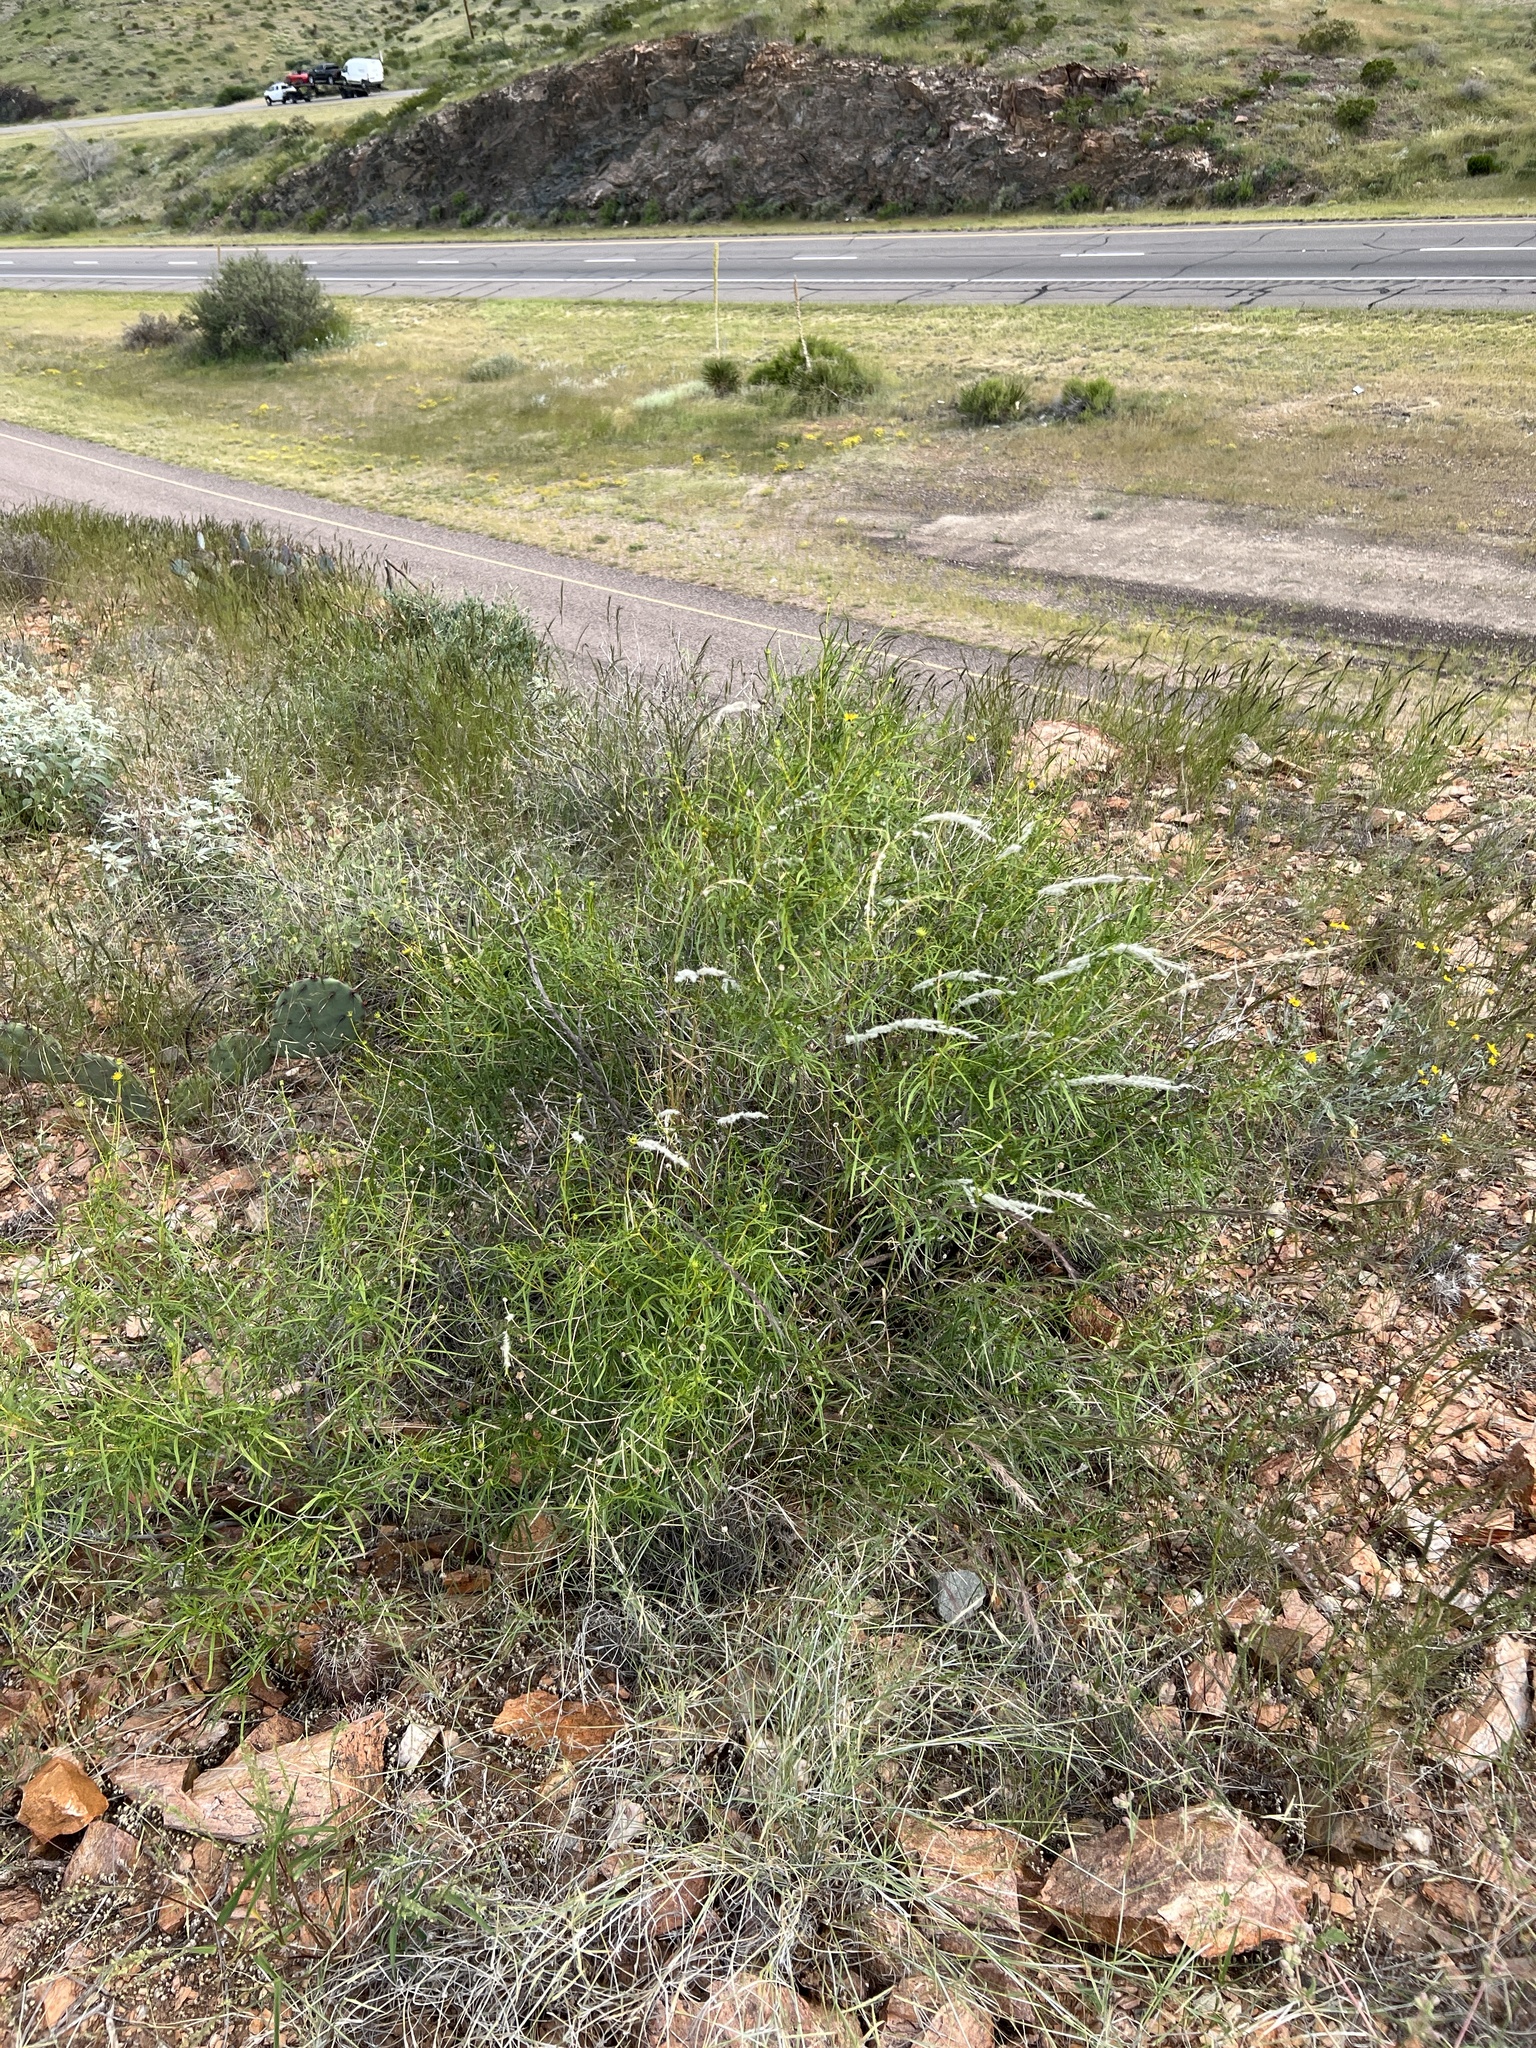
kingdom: Plantae
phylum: Tracheophyta
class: Magnoliopsida
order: Asterales
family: Asteraceae
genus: Sidneya
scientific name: Sidneya tenuifolia
